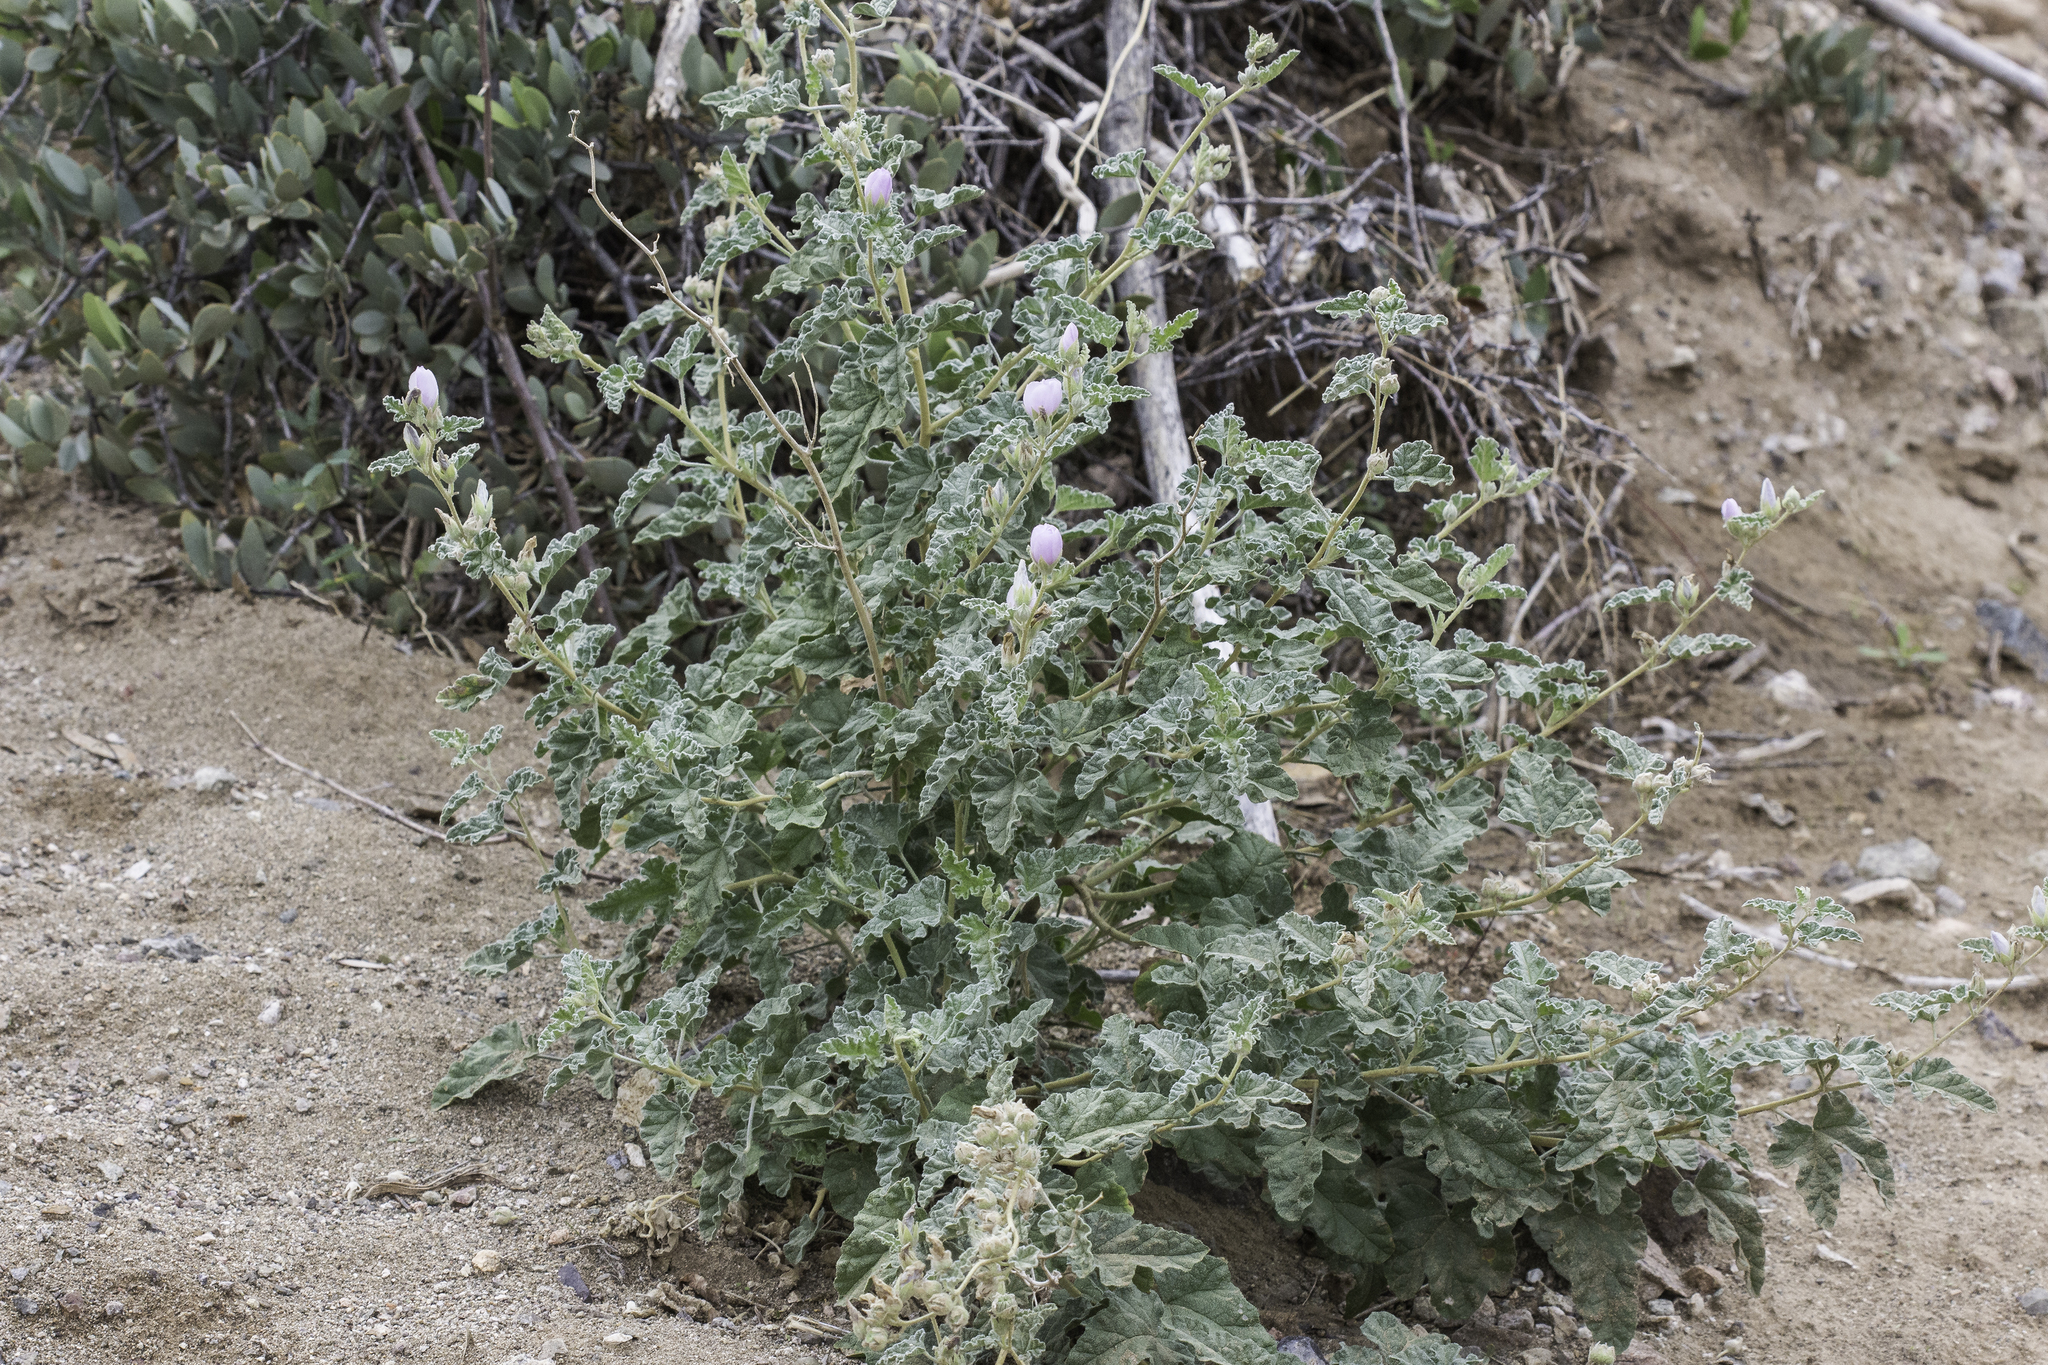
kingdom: Plantae
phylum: Tracheophyta
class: Magnoliopsida
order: Malvales
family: Malvaceae
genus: Sphaeralcea
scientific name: Sphaeralcea ambigua
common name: Apricot globe-mallow
